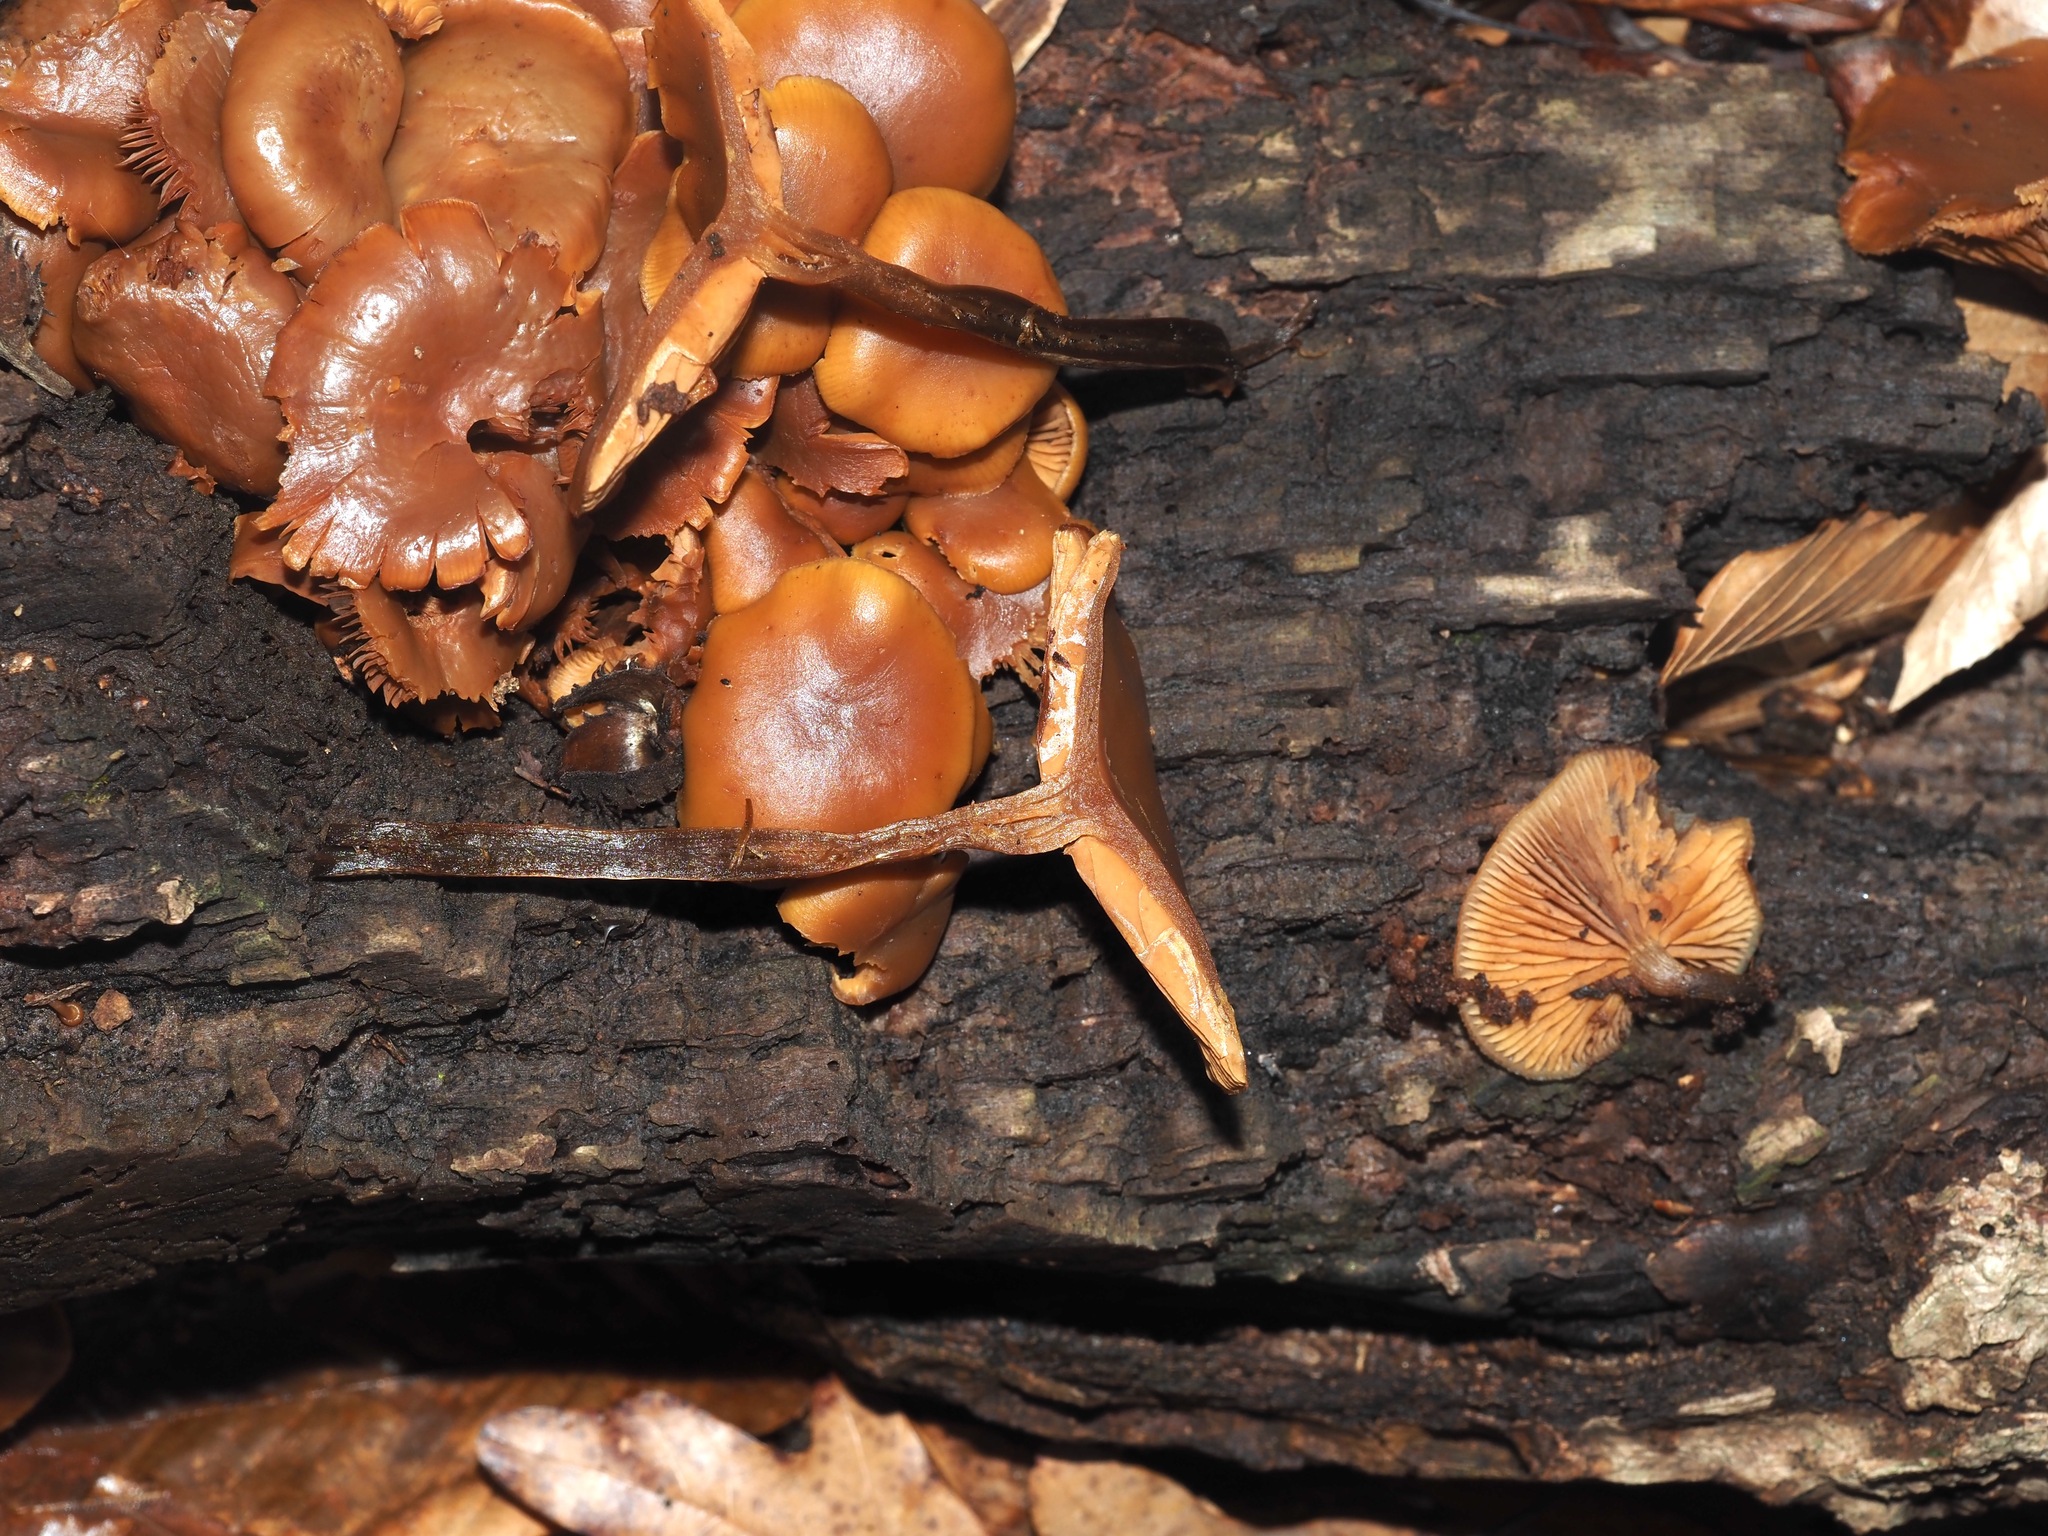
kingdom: Fungi
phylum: Basidiomycota
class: Agaricomycetes
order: Agaricales
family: Hymenogastraceae
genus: Galerina
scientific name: Galerina marginata
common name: Funeral bell
